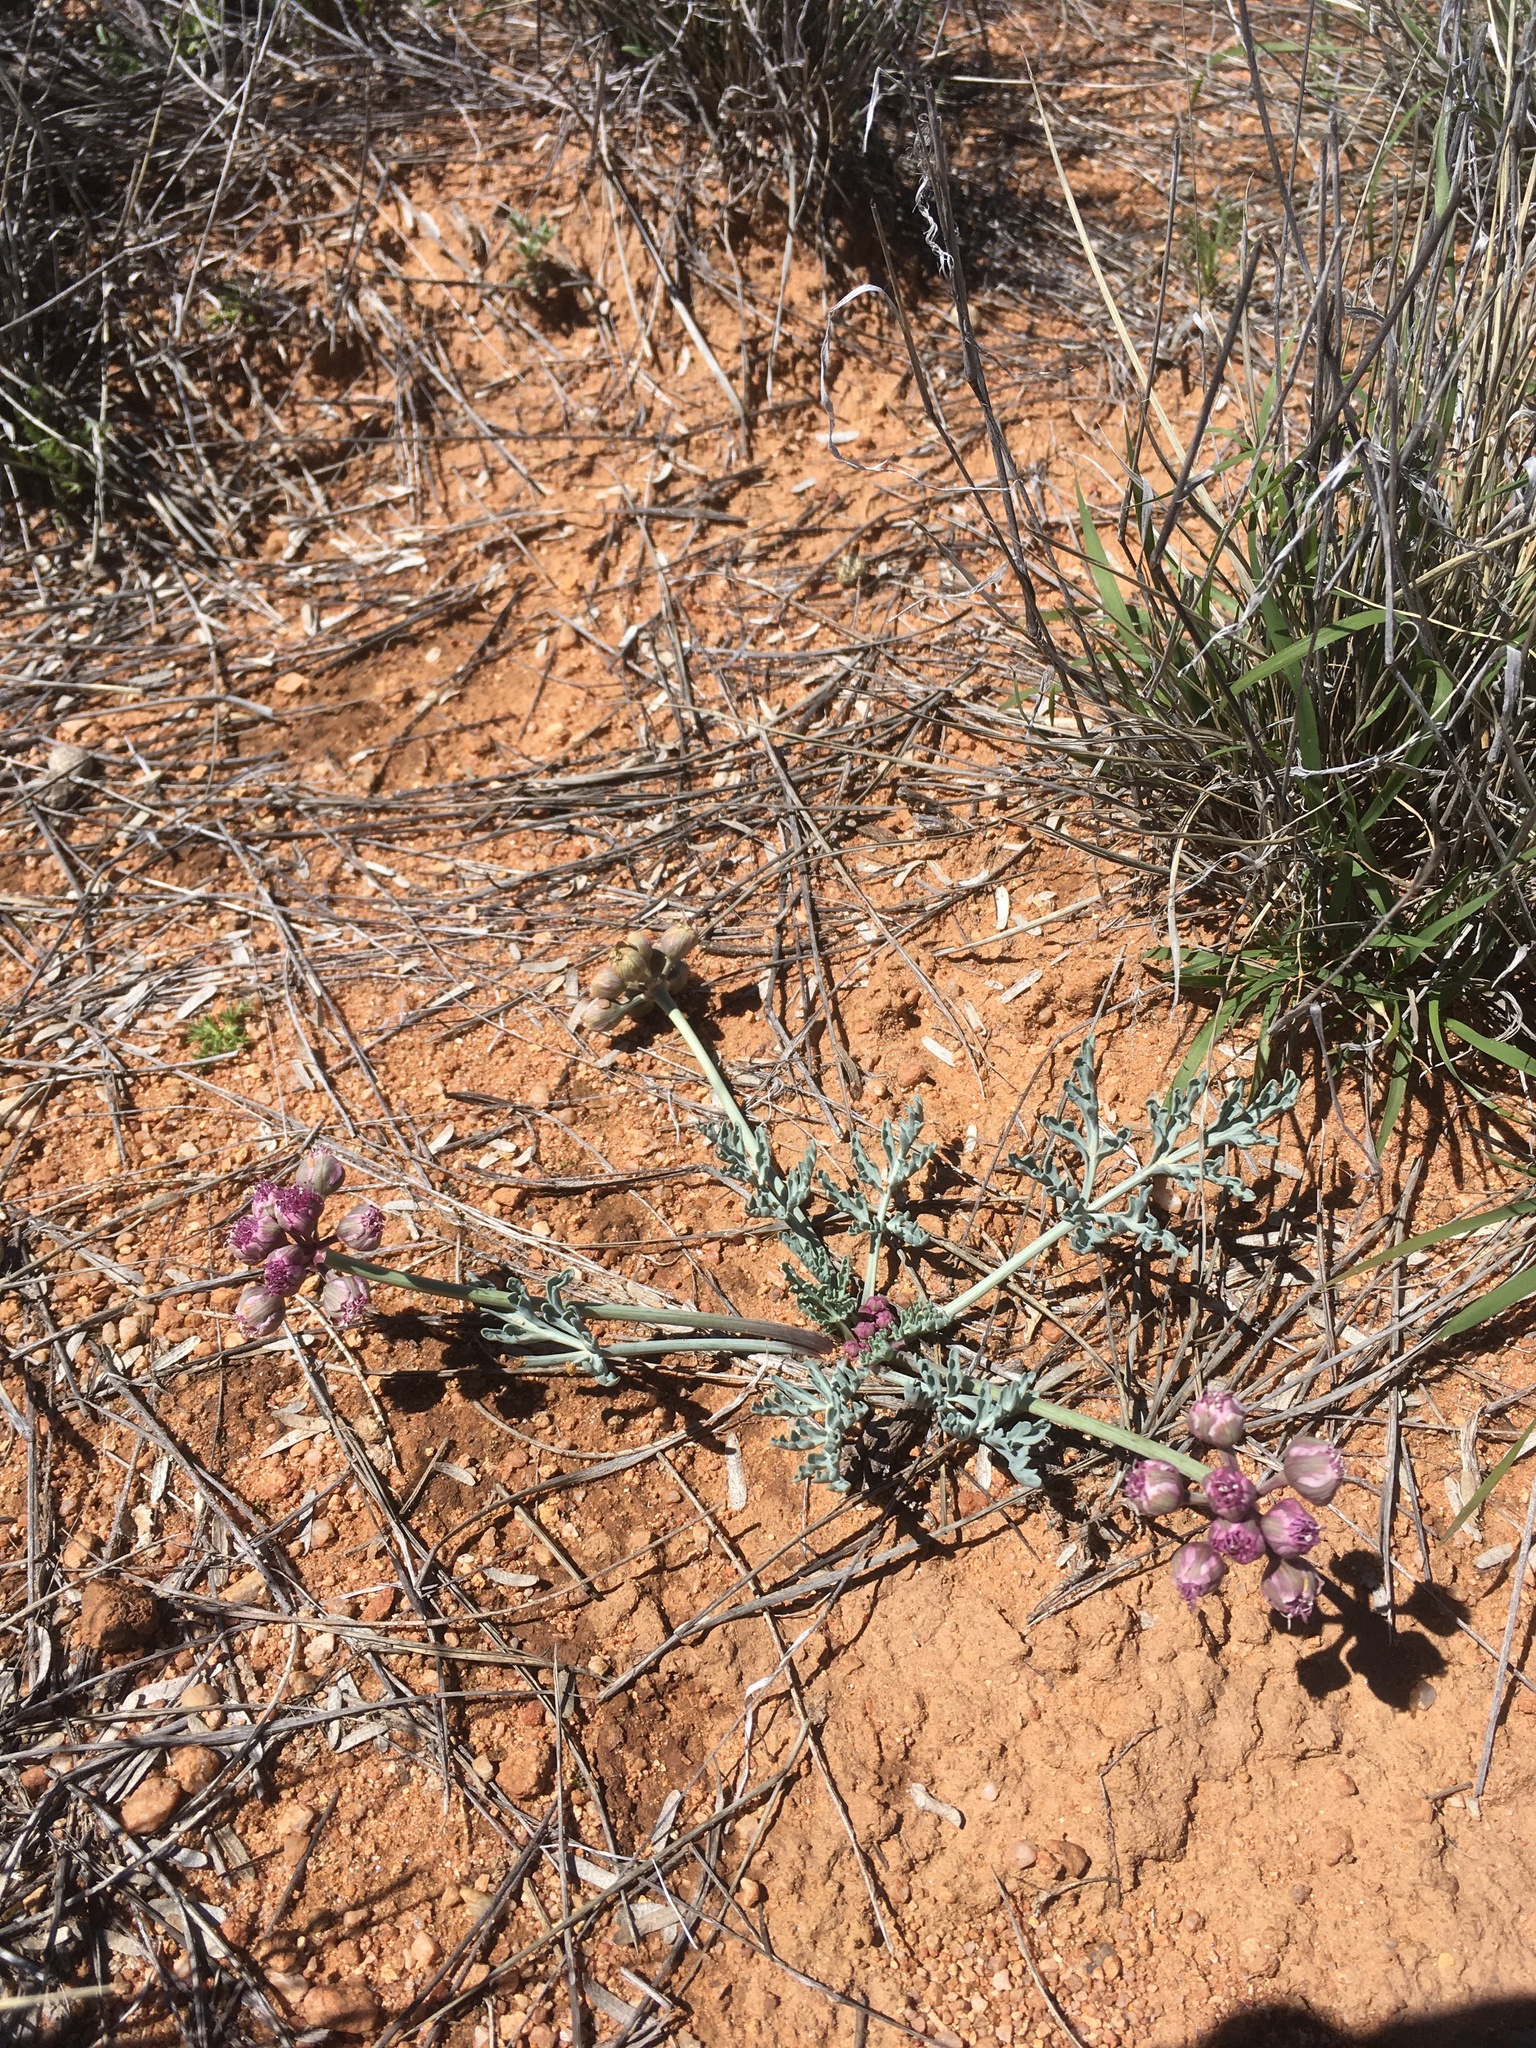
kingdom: Plantae
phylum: Tracheophyta
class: Magnoliopsida
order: Apiales
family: Apiaceae
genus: Vesper
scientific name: Vesper multinervatus
